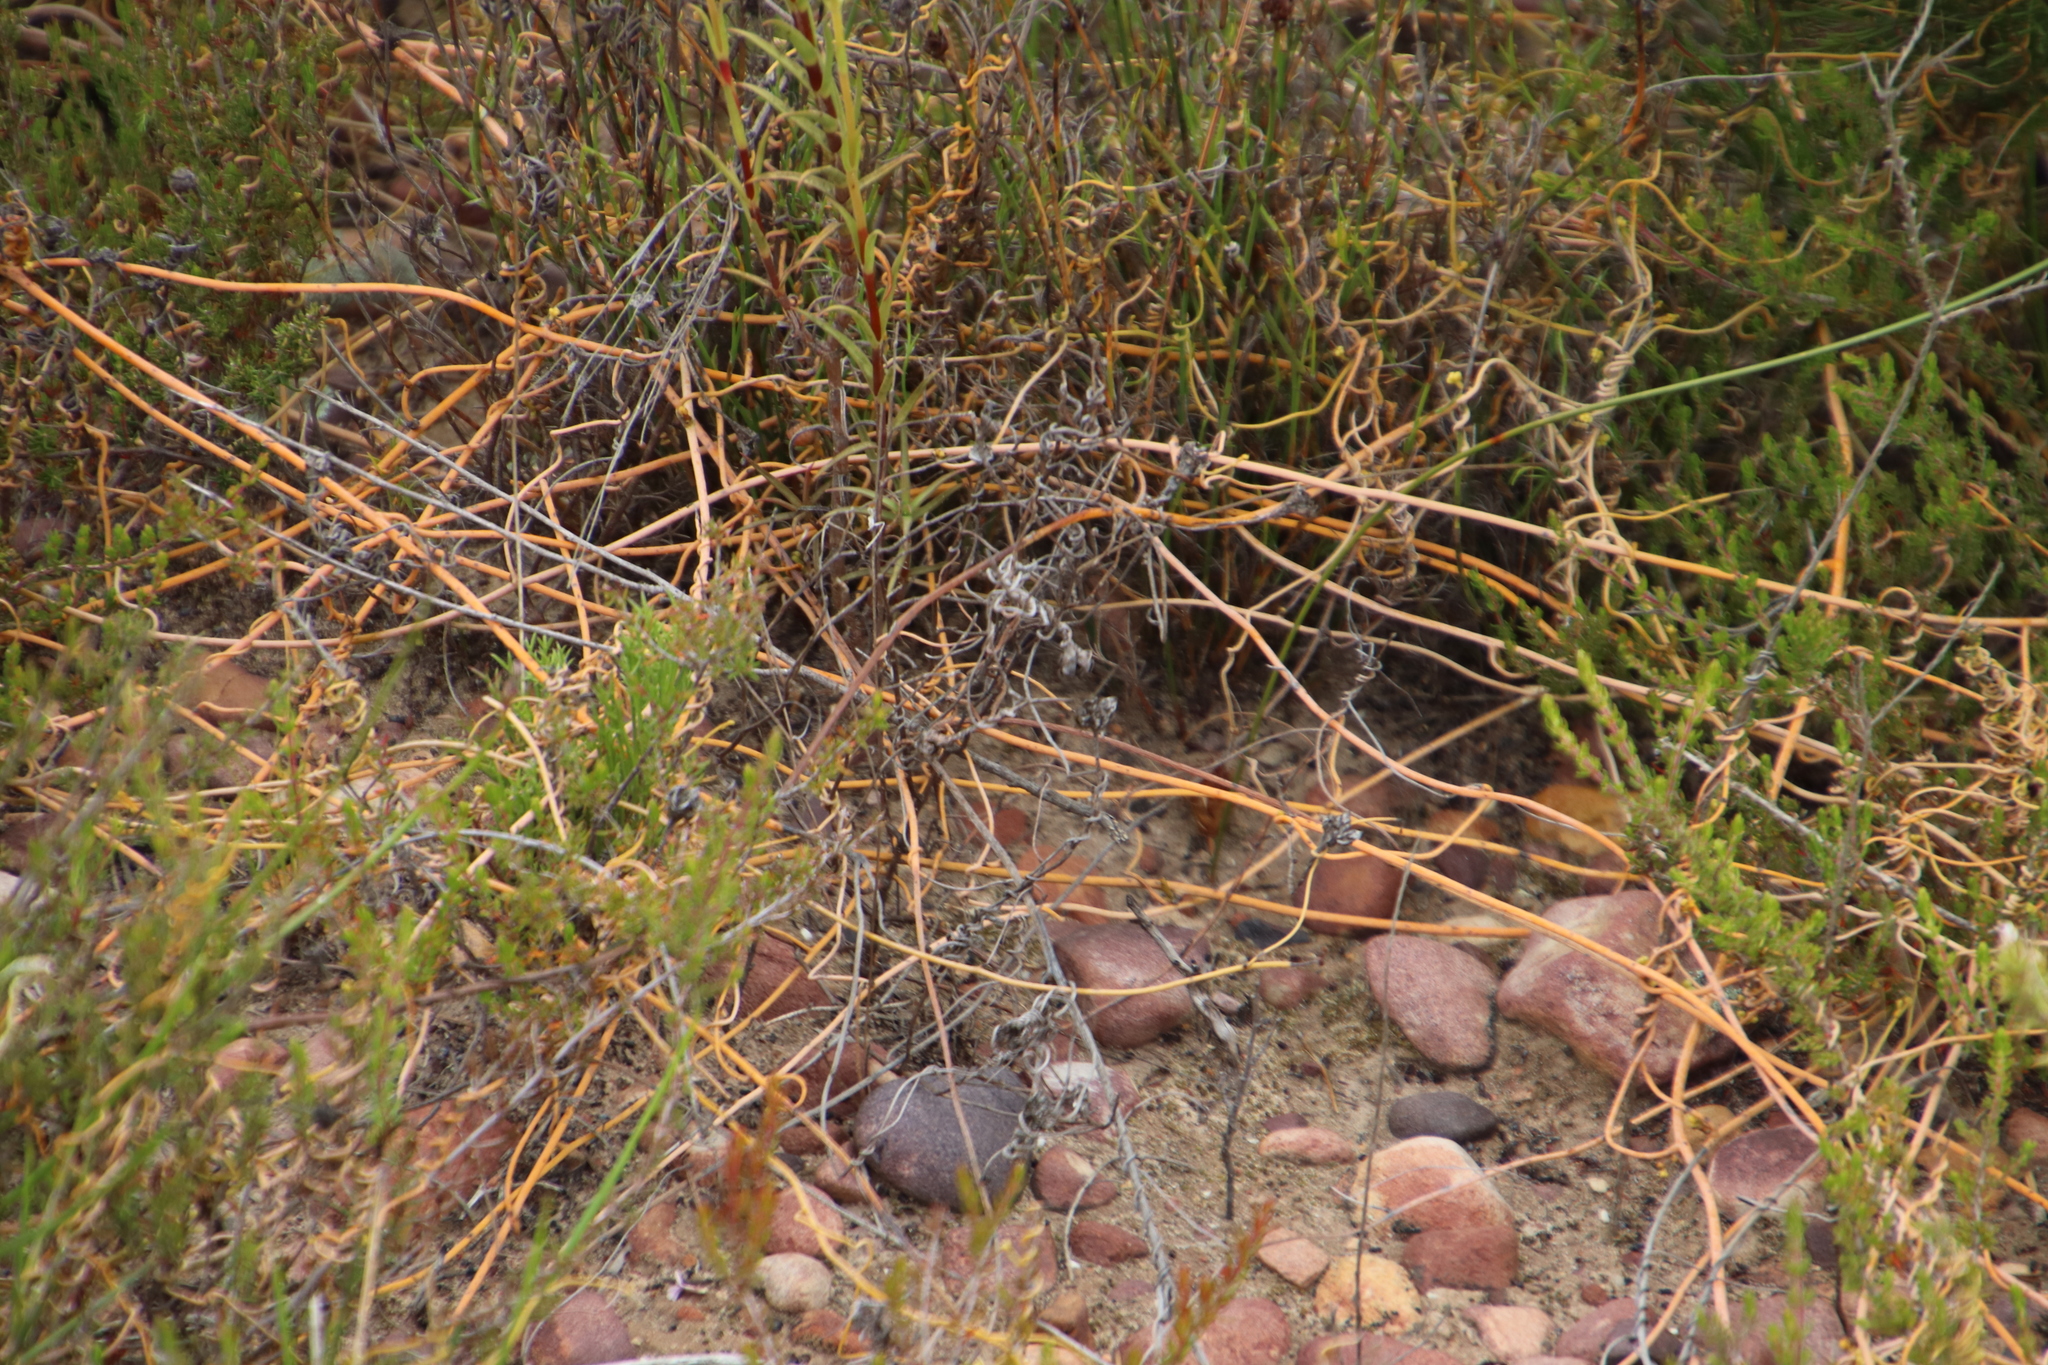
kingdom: Plantae
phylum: Tracheophyta
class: Magnoliopsida
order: Laurales
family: Lauraceae
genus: Cassytha
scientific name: Cassytha ciliolata
